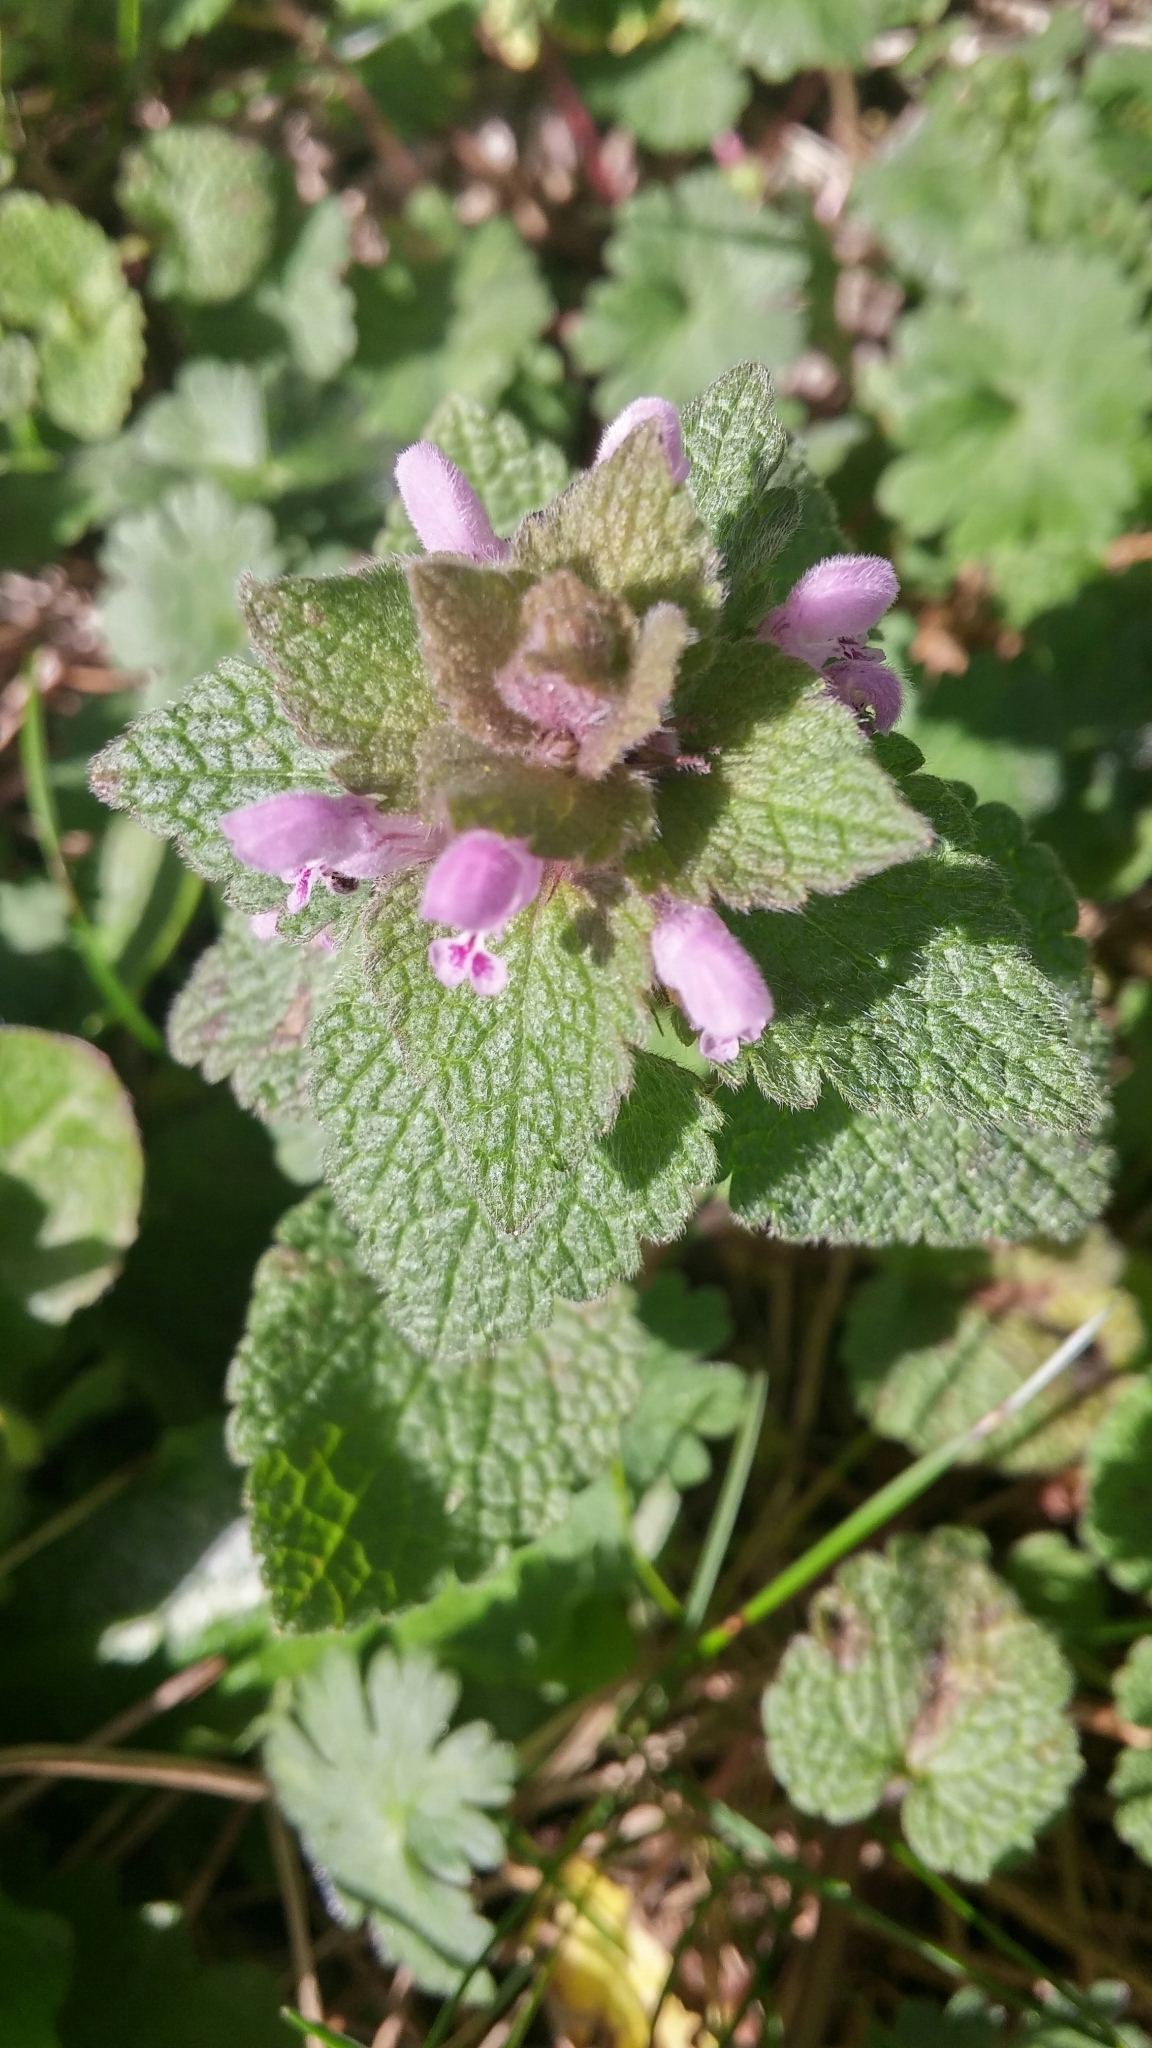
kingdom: Plantae
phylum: Tracheophyta
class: Magnoliopsida
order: Lamiales
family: Lamiaceae
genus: Lamium
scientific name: Lamium purpureum
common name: Red dead-nettle
